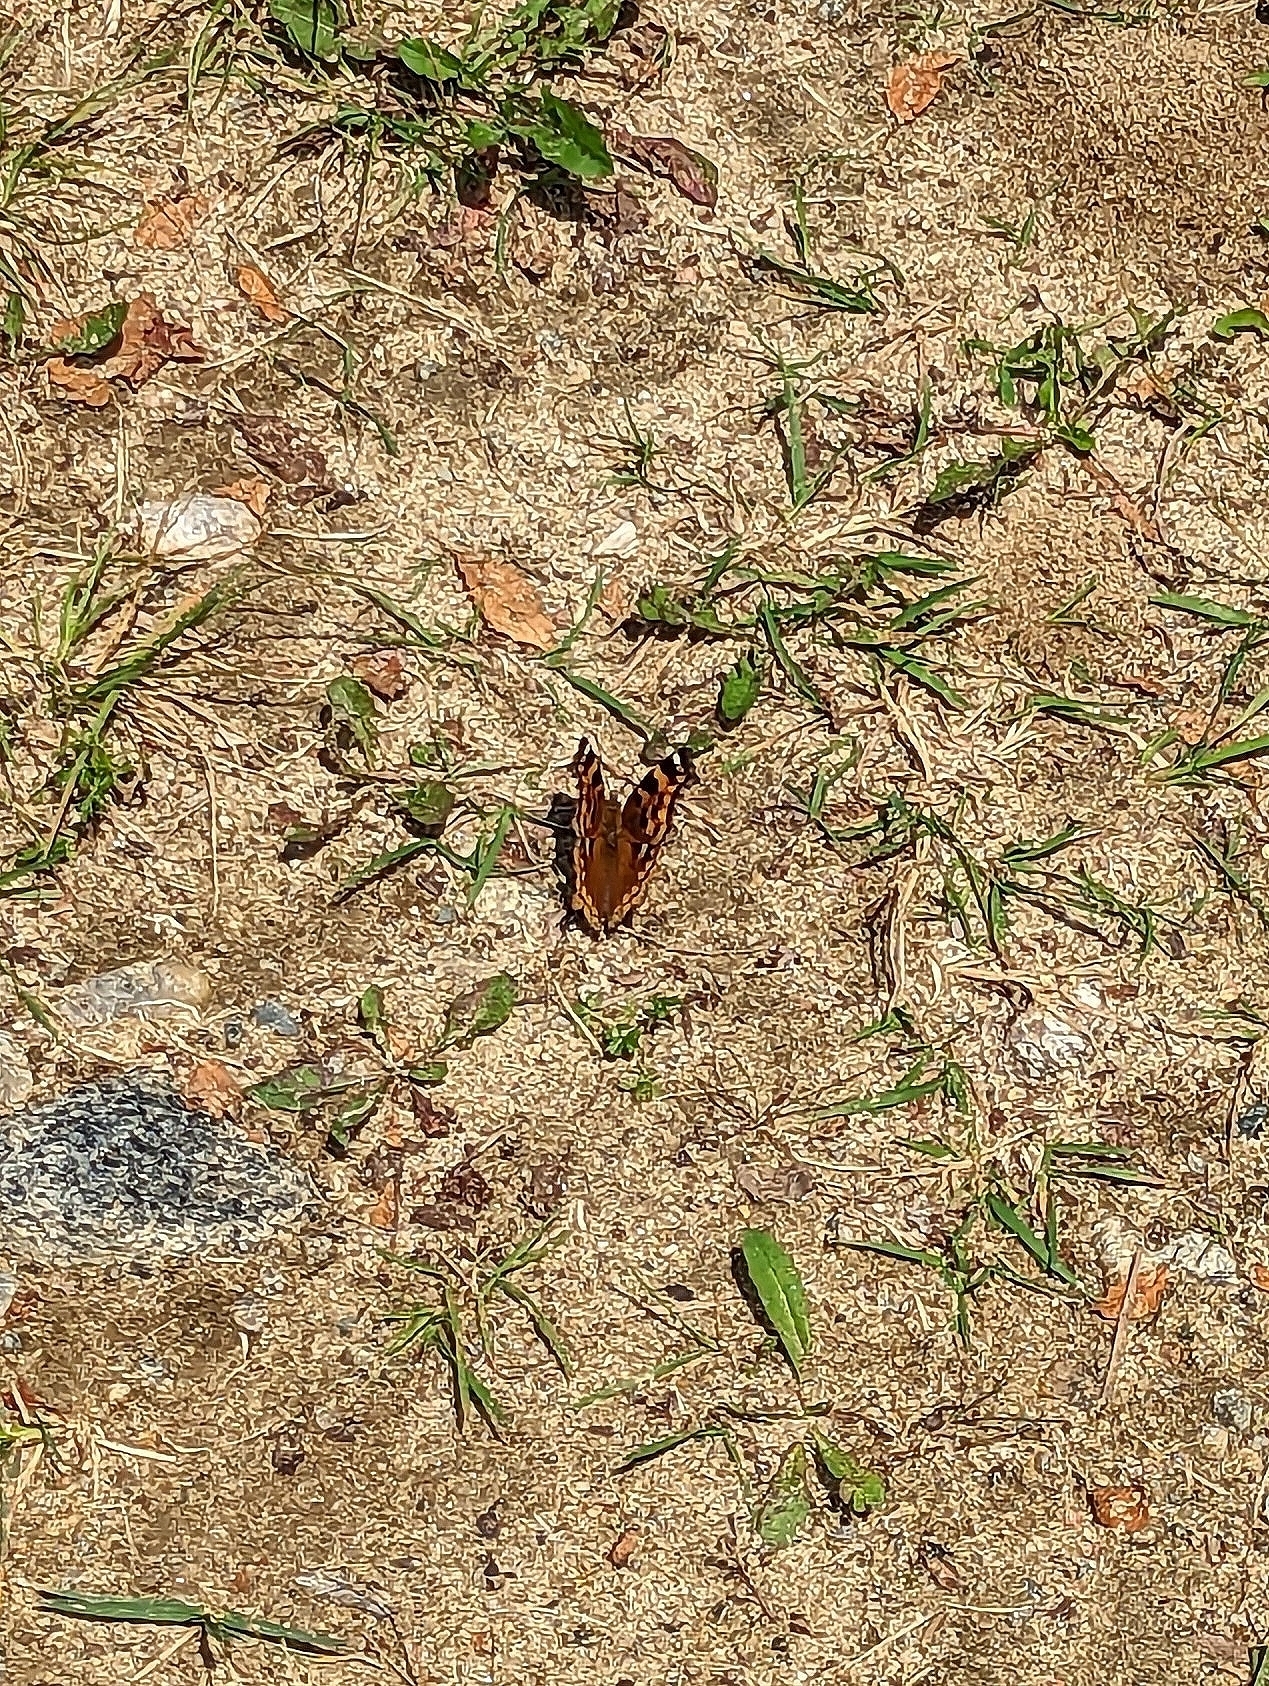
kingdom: Animalia
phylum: Arthropoda
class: Insecta
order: Lepidoptera
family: Nymphalidae
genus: Polygonia
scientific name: Polygonia vaualbum
